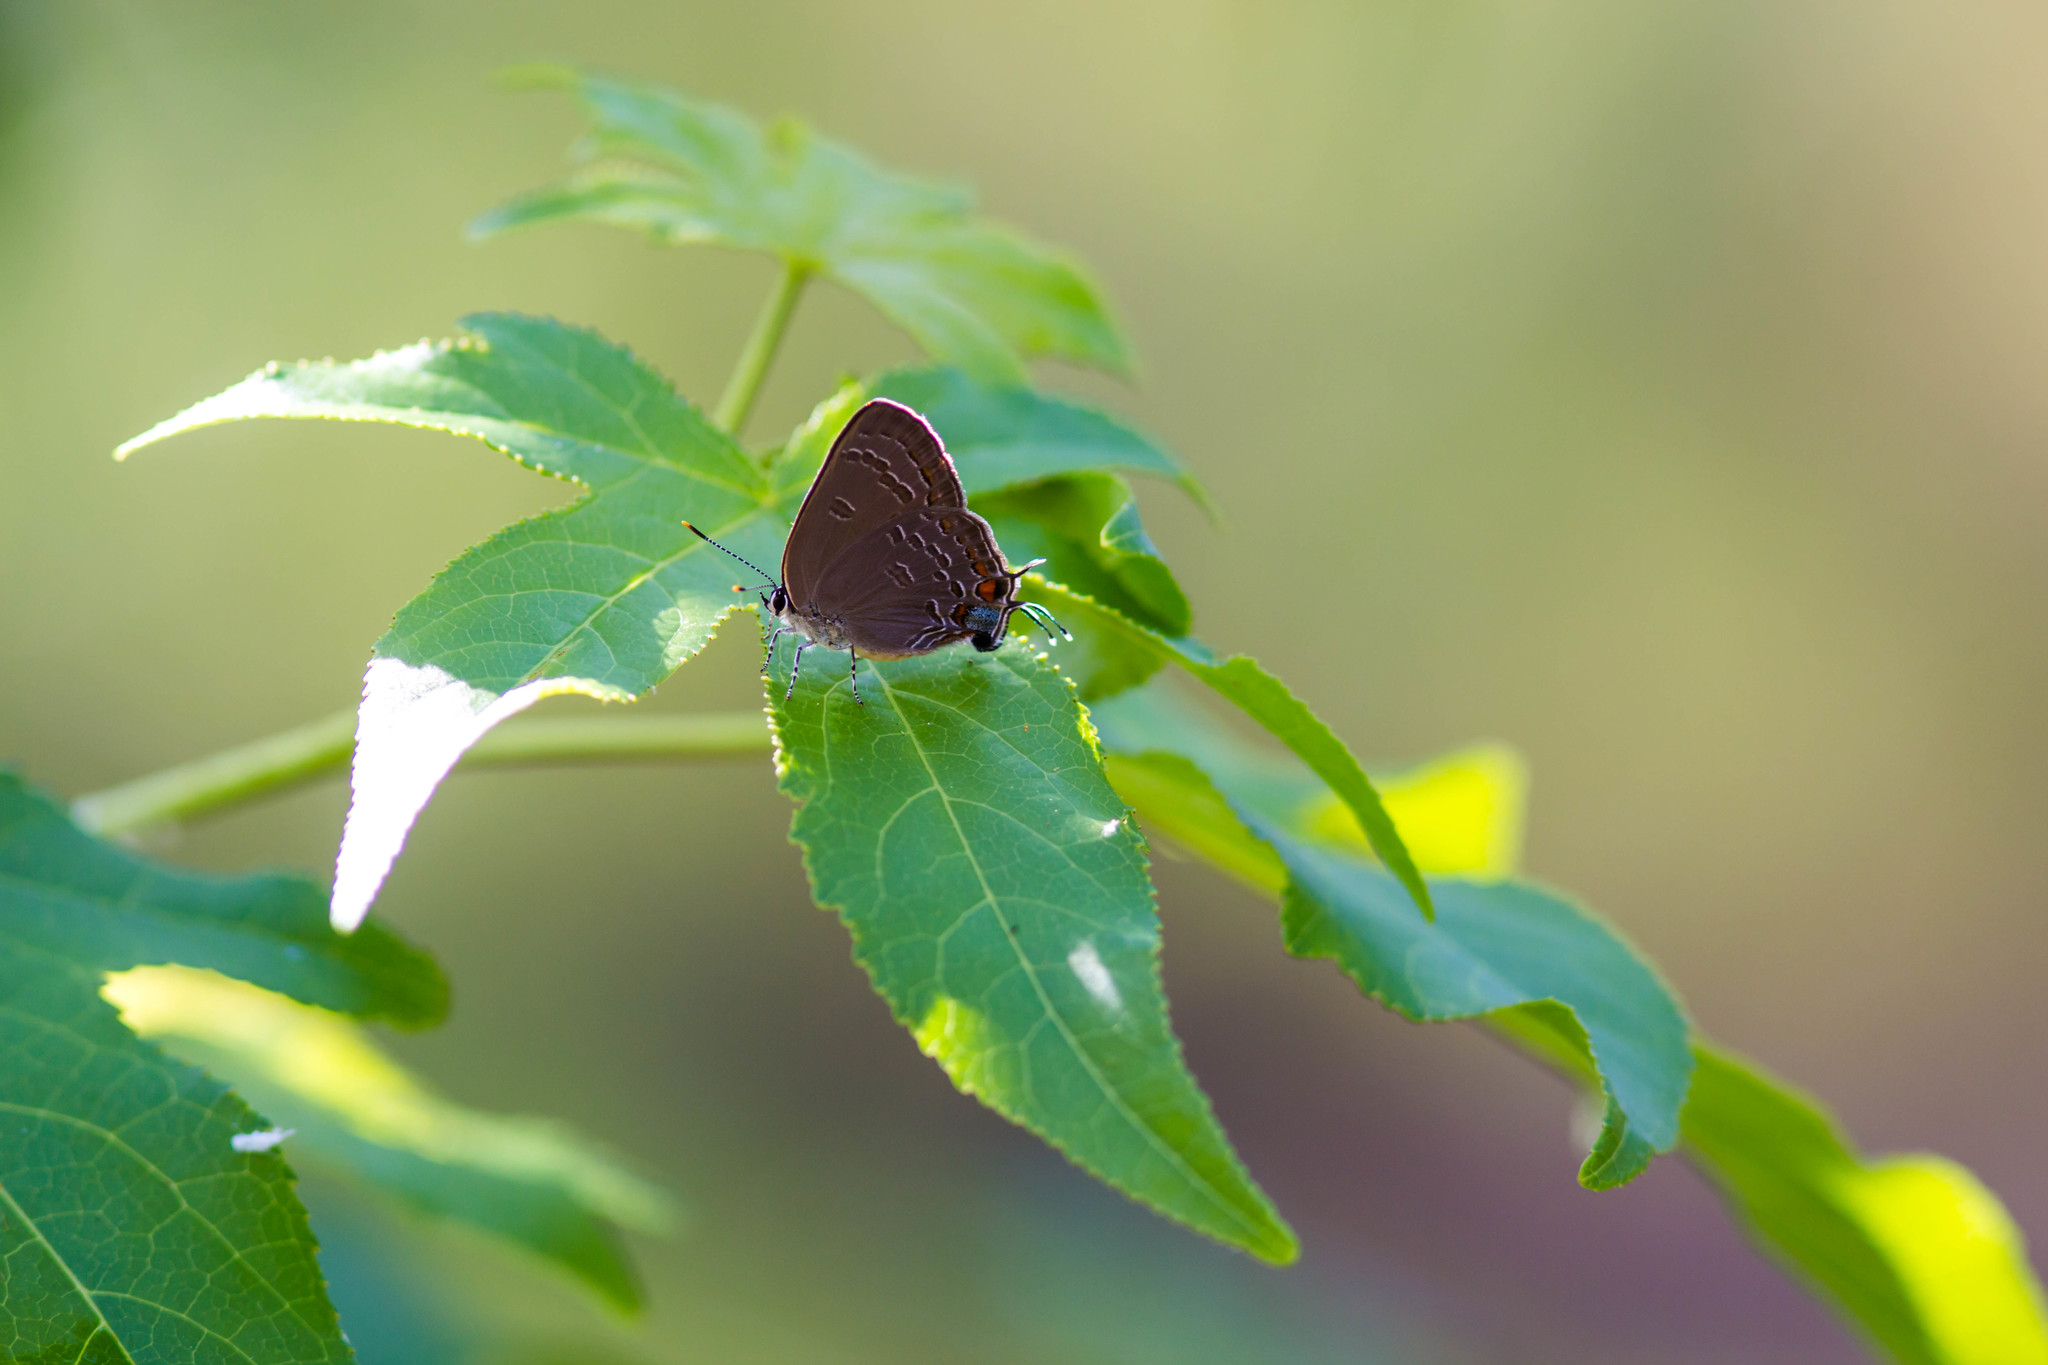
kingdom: Animalia
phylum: Arthropoda
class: Insecta
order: Lepidoptera
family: Lycaenidae
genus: Strymon
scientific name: Strymon kingi
